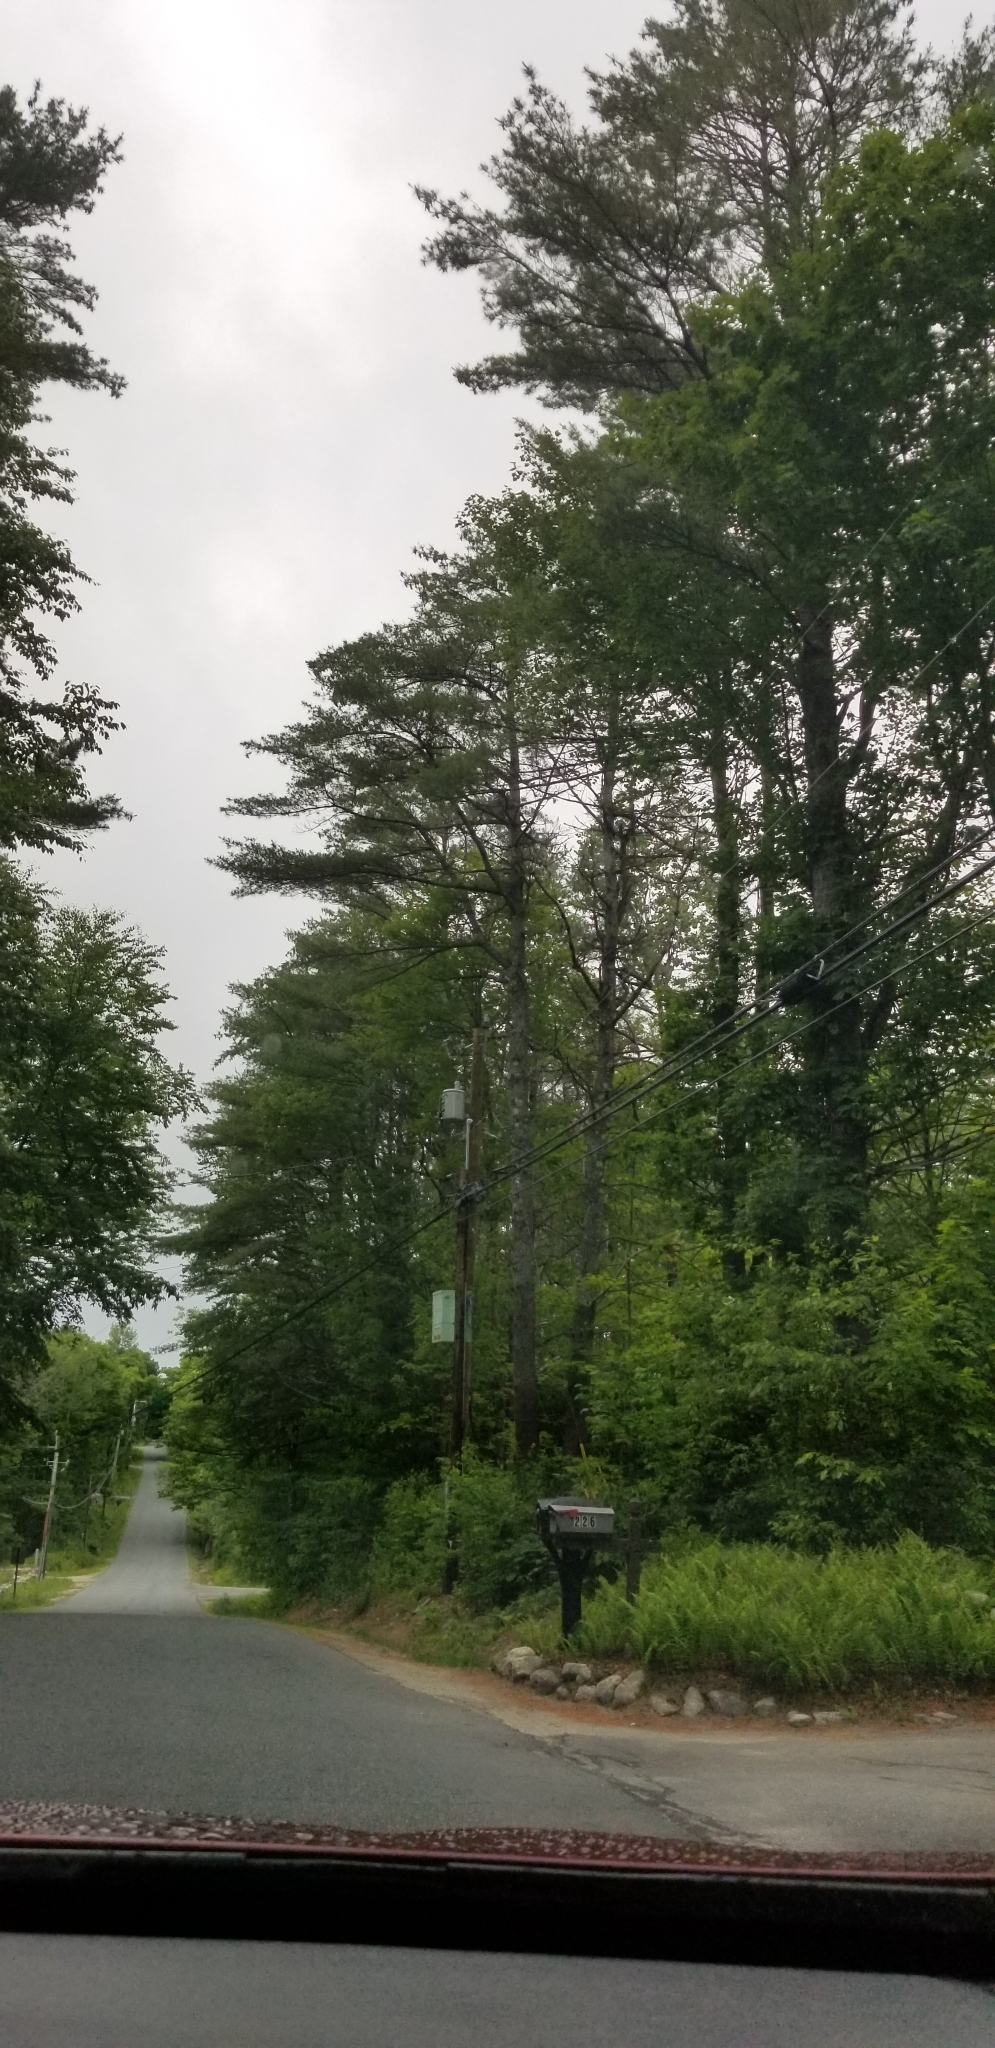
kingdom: Plantae
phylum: Tracheophyta
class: Pinopsida
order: Pinales
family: Pinaceae
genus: Pinus
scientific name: Pinus strobus
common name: Weymouth pine
